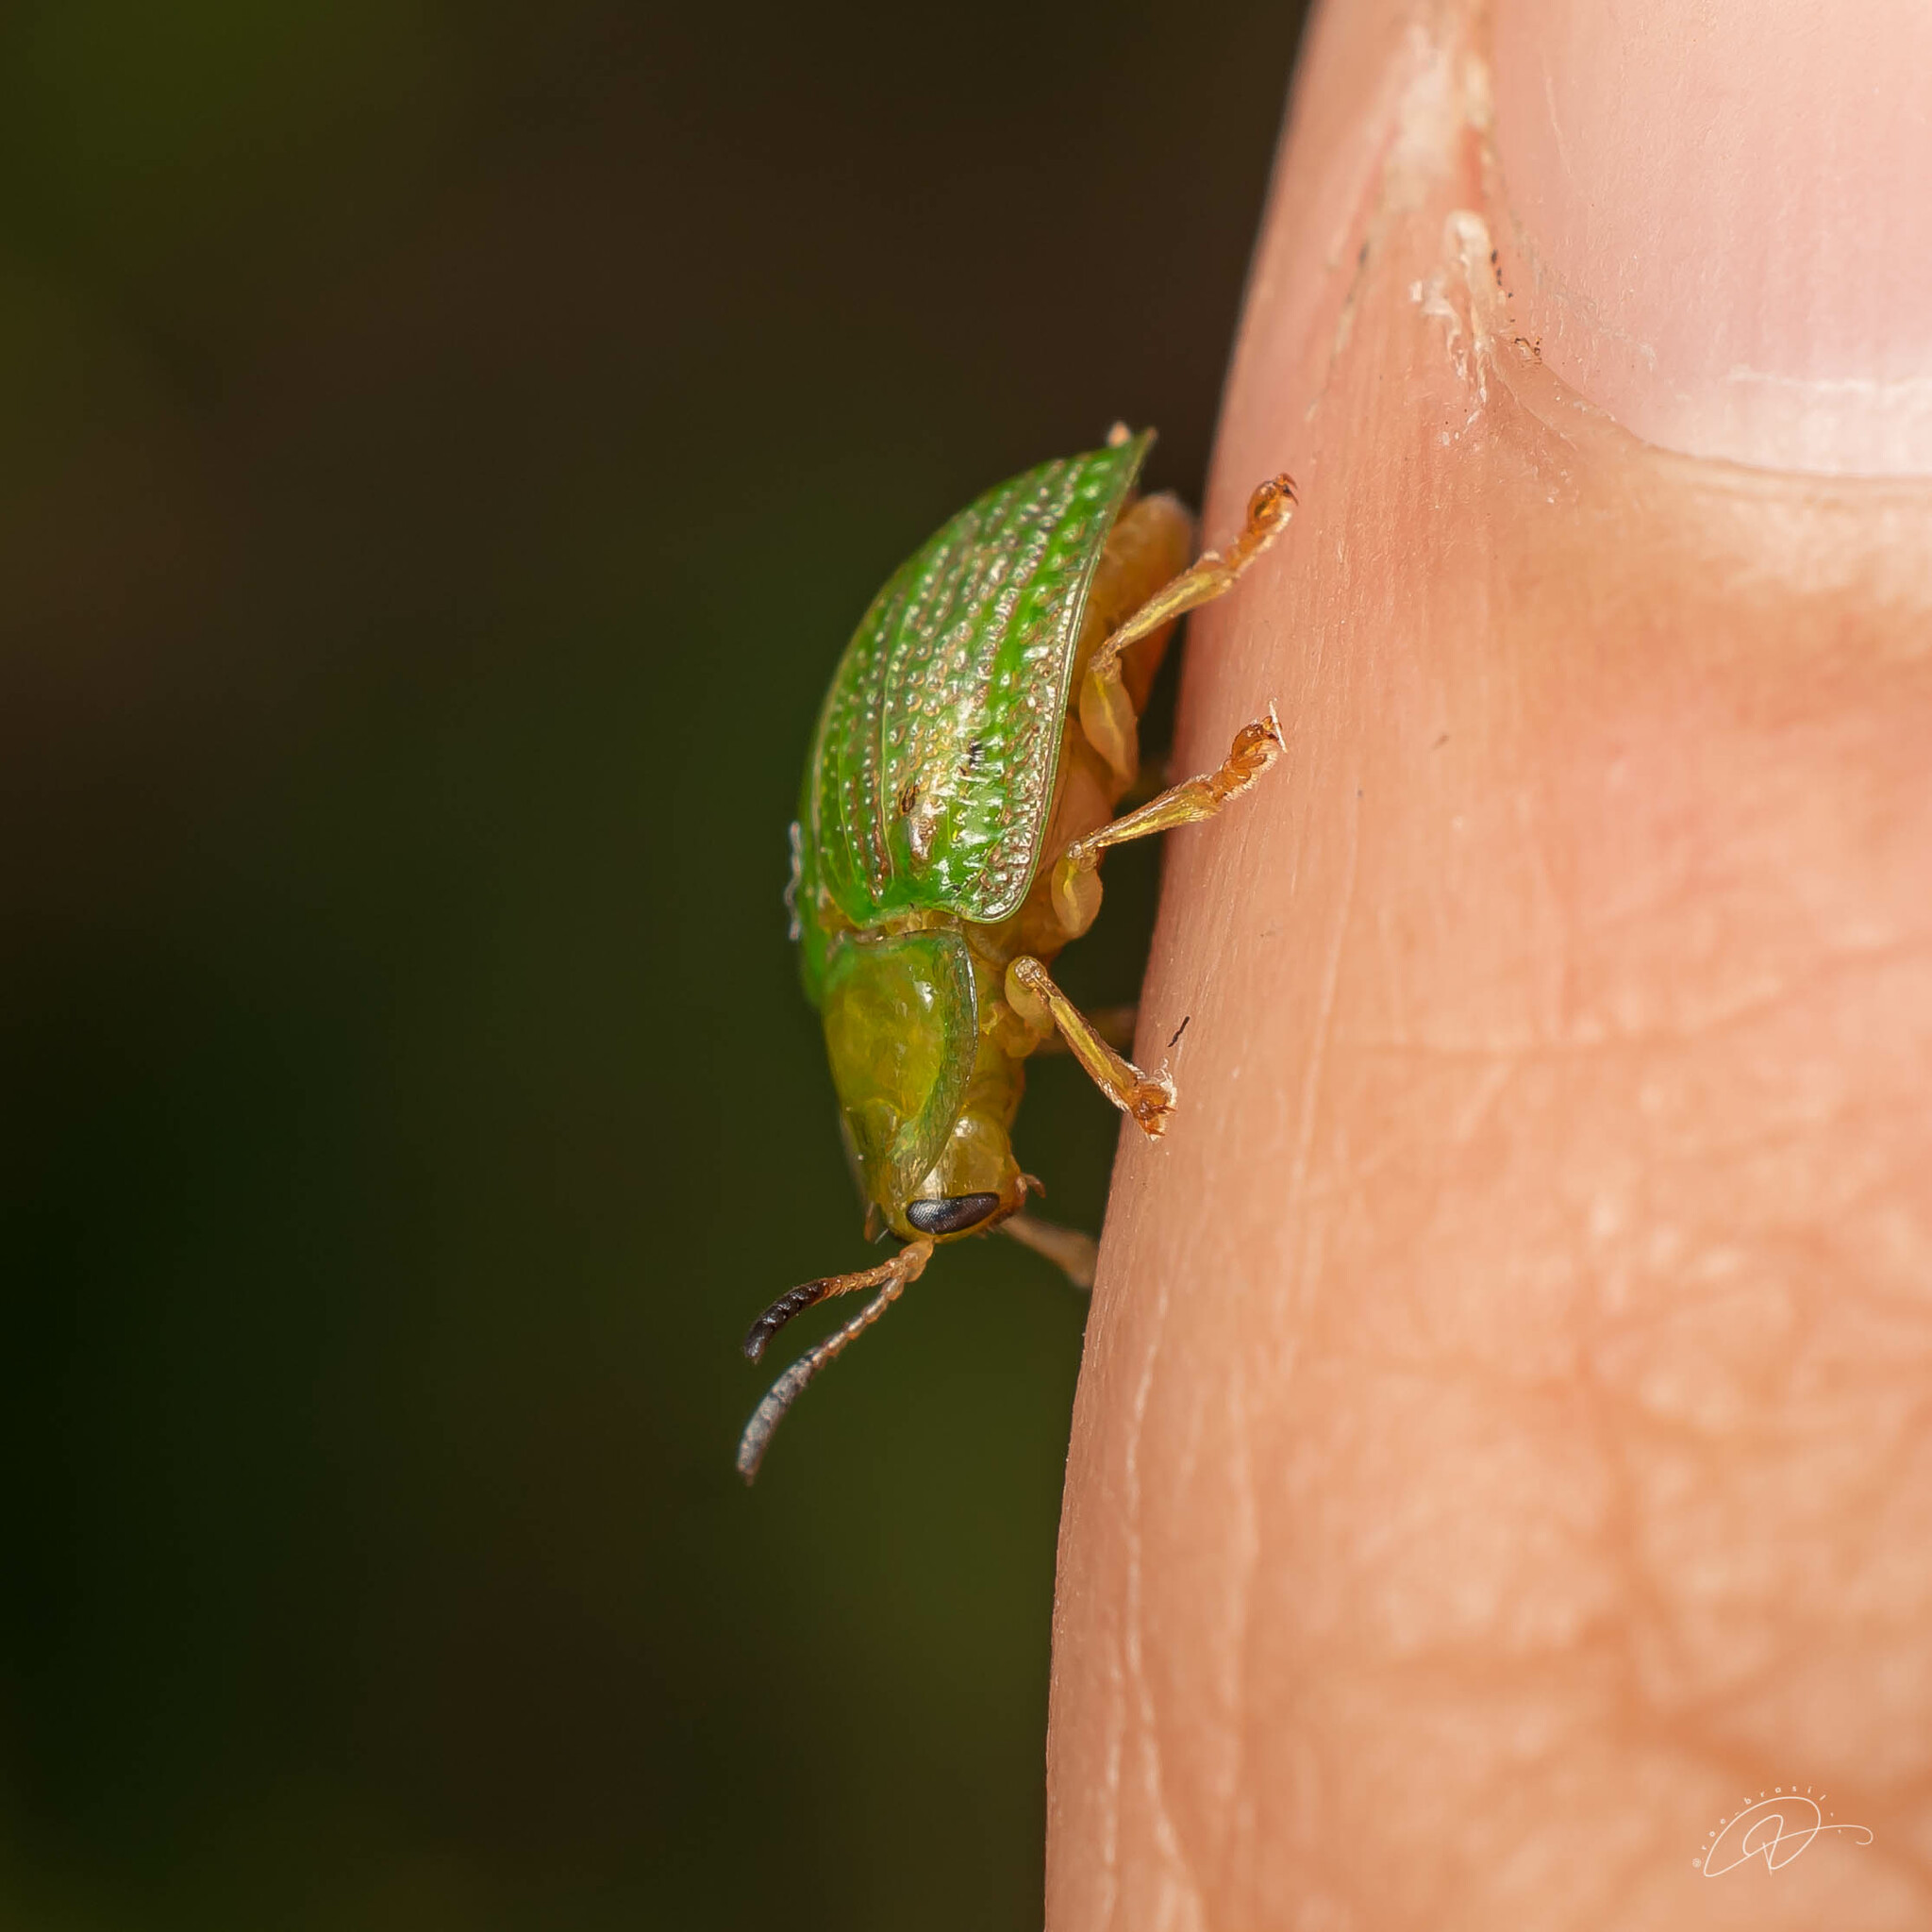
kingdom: Animalia
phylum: Arthropoda
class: Insecta
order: Coleoptera
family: Chrysomelidae
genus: Gratiana
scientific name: Gratiana spadicea
